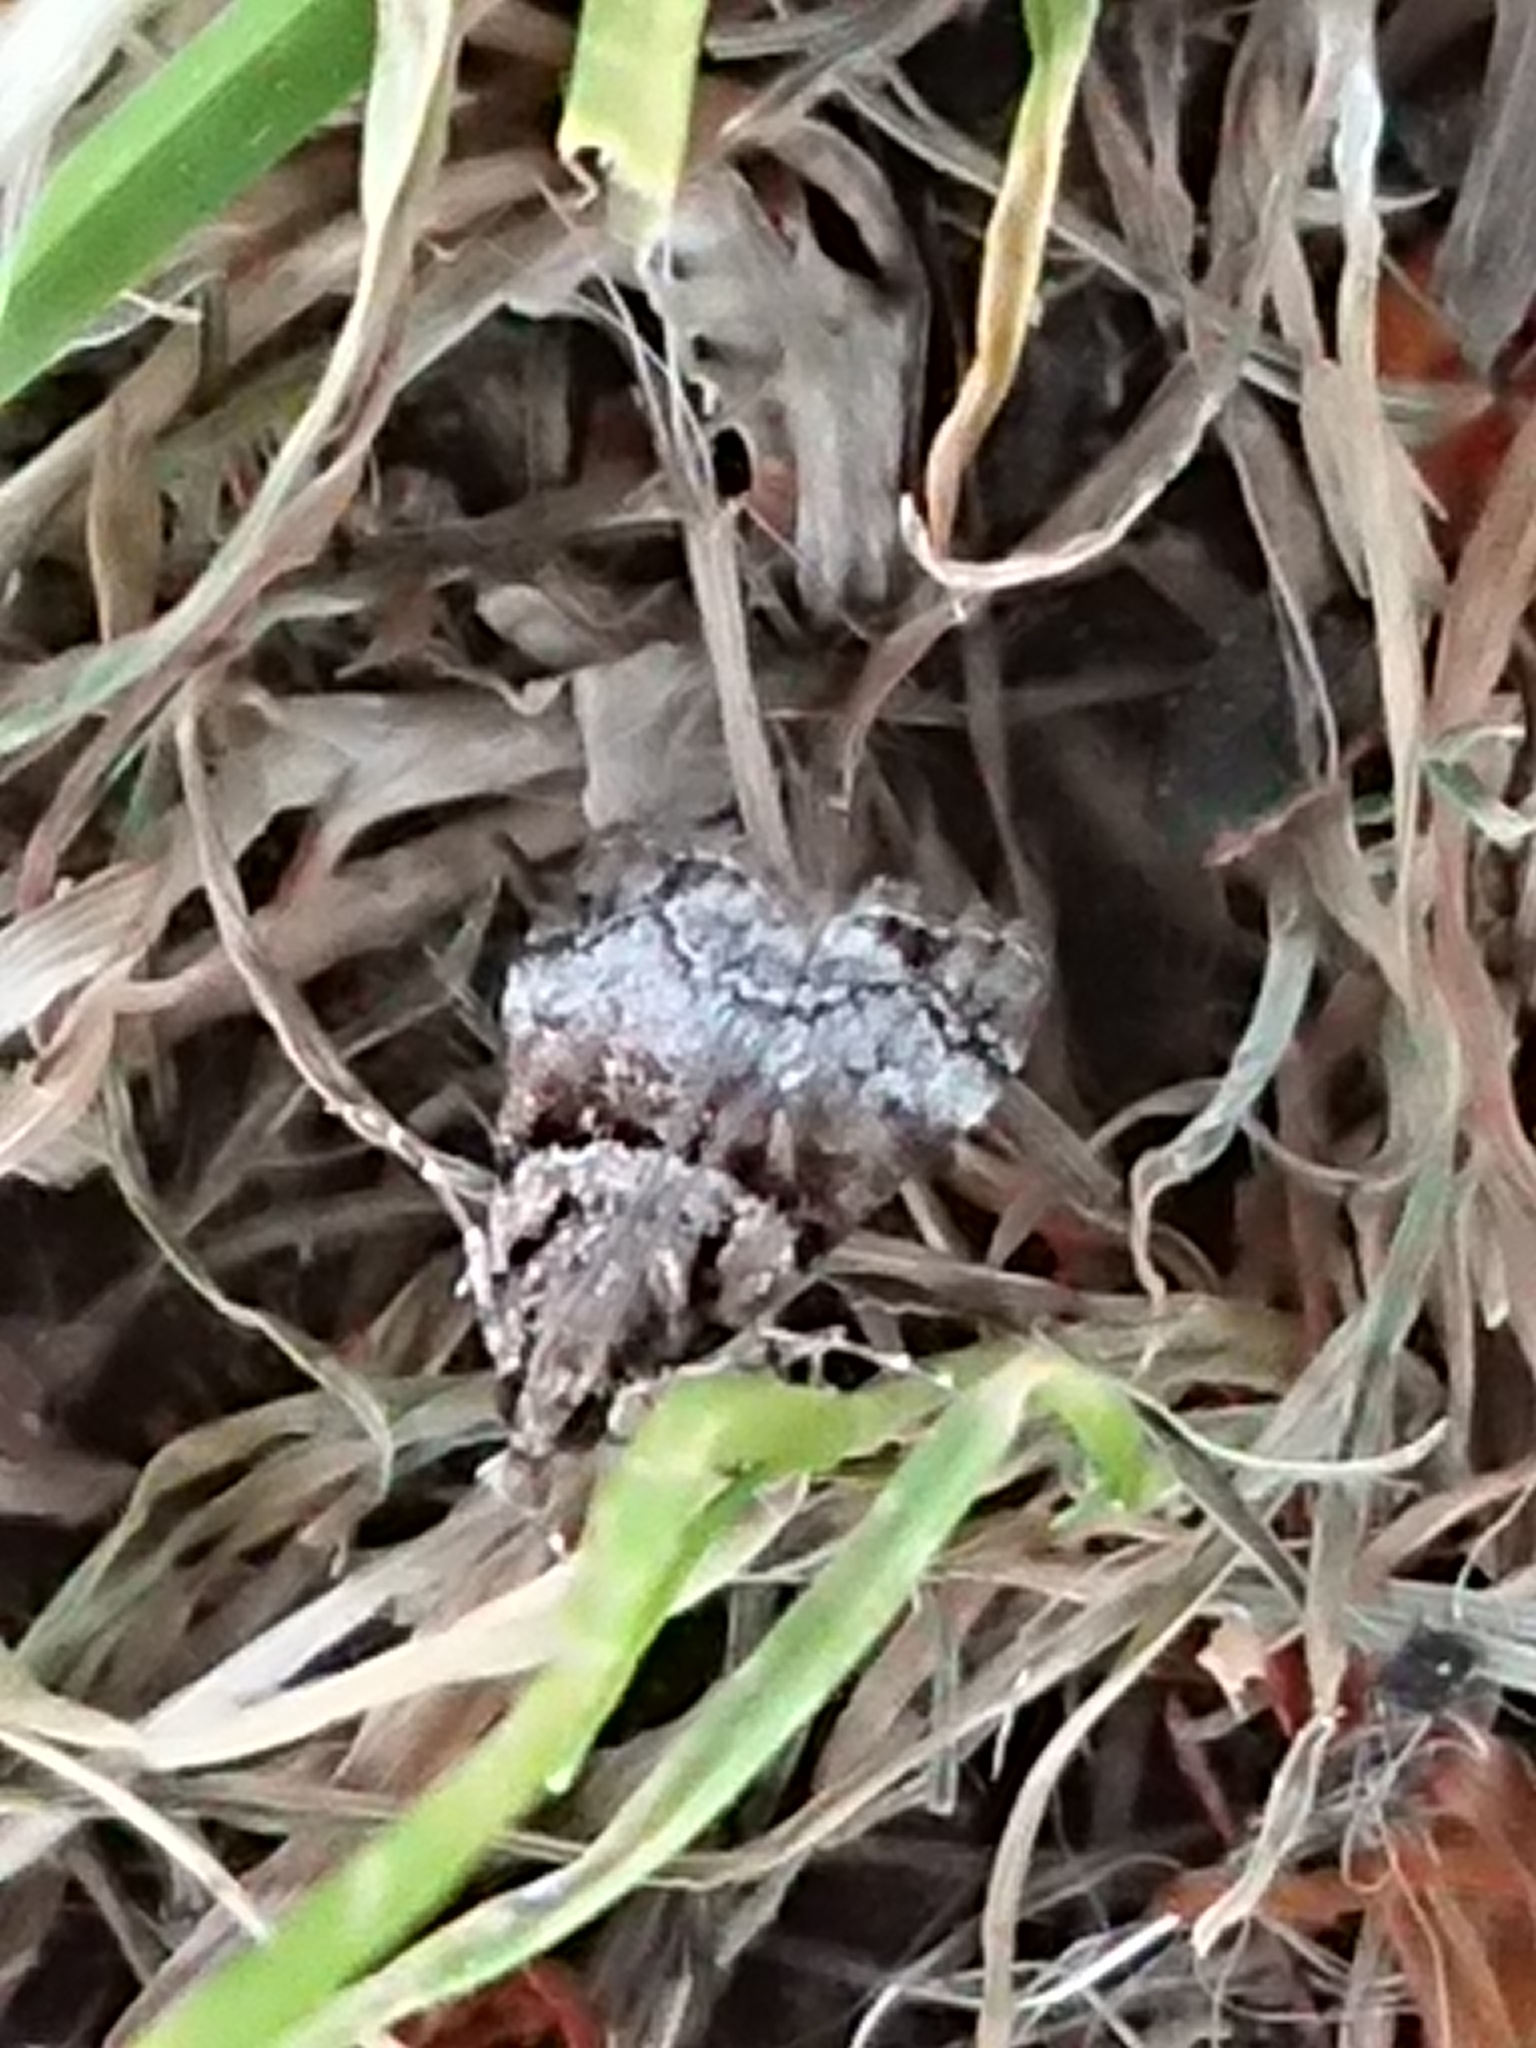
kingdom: Animalia
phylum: Arthropoda
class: Insecta
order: Lepidoptera
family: Crambidae
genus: Eudonia
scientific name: Eudonia colpota
